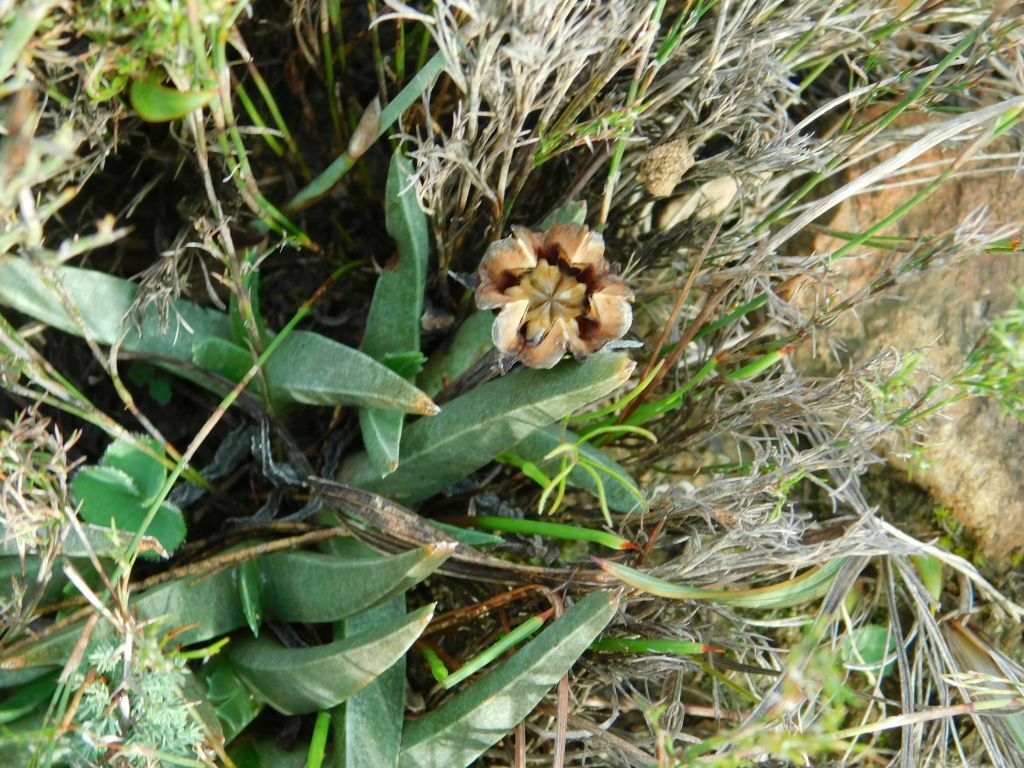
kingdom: Plantae
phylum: Tracheophyta
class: Magnoliopsida
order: Caryophyllales
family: Aizoaceae
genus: Acrodon
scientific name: Acrodon subulatus
